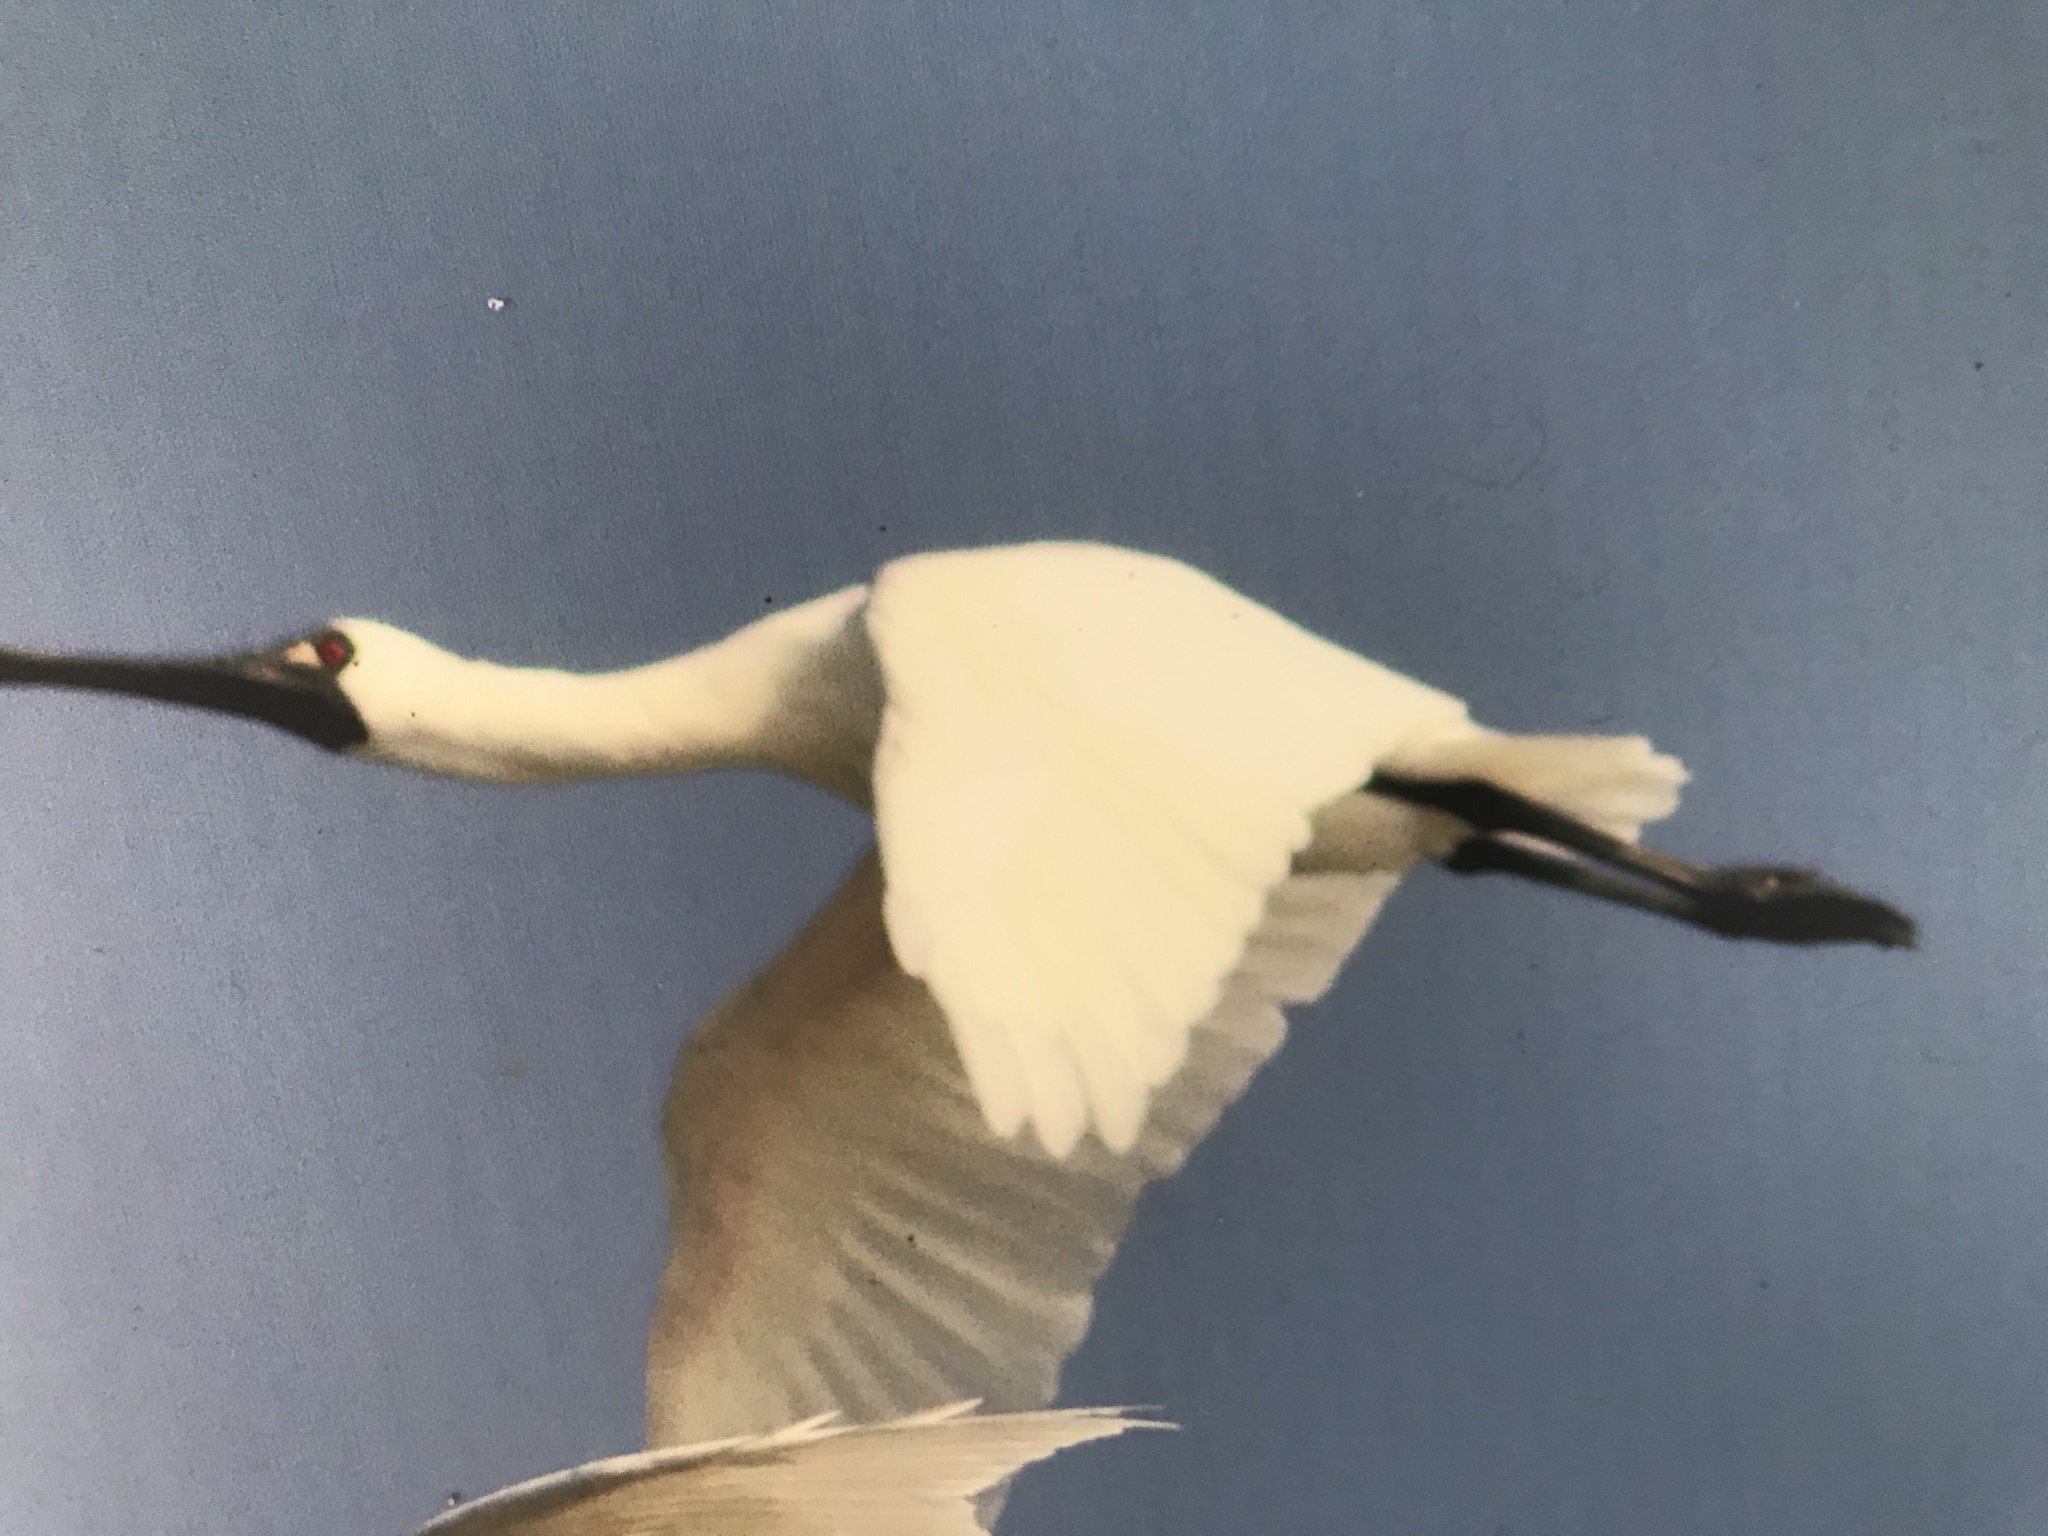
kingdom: Animalia
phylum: Chordata
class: Aves
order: Pelecaniformes
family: Threskiornithidae
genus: Platalea
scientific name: Platalea minor
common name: Black-faced spoonbill
